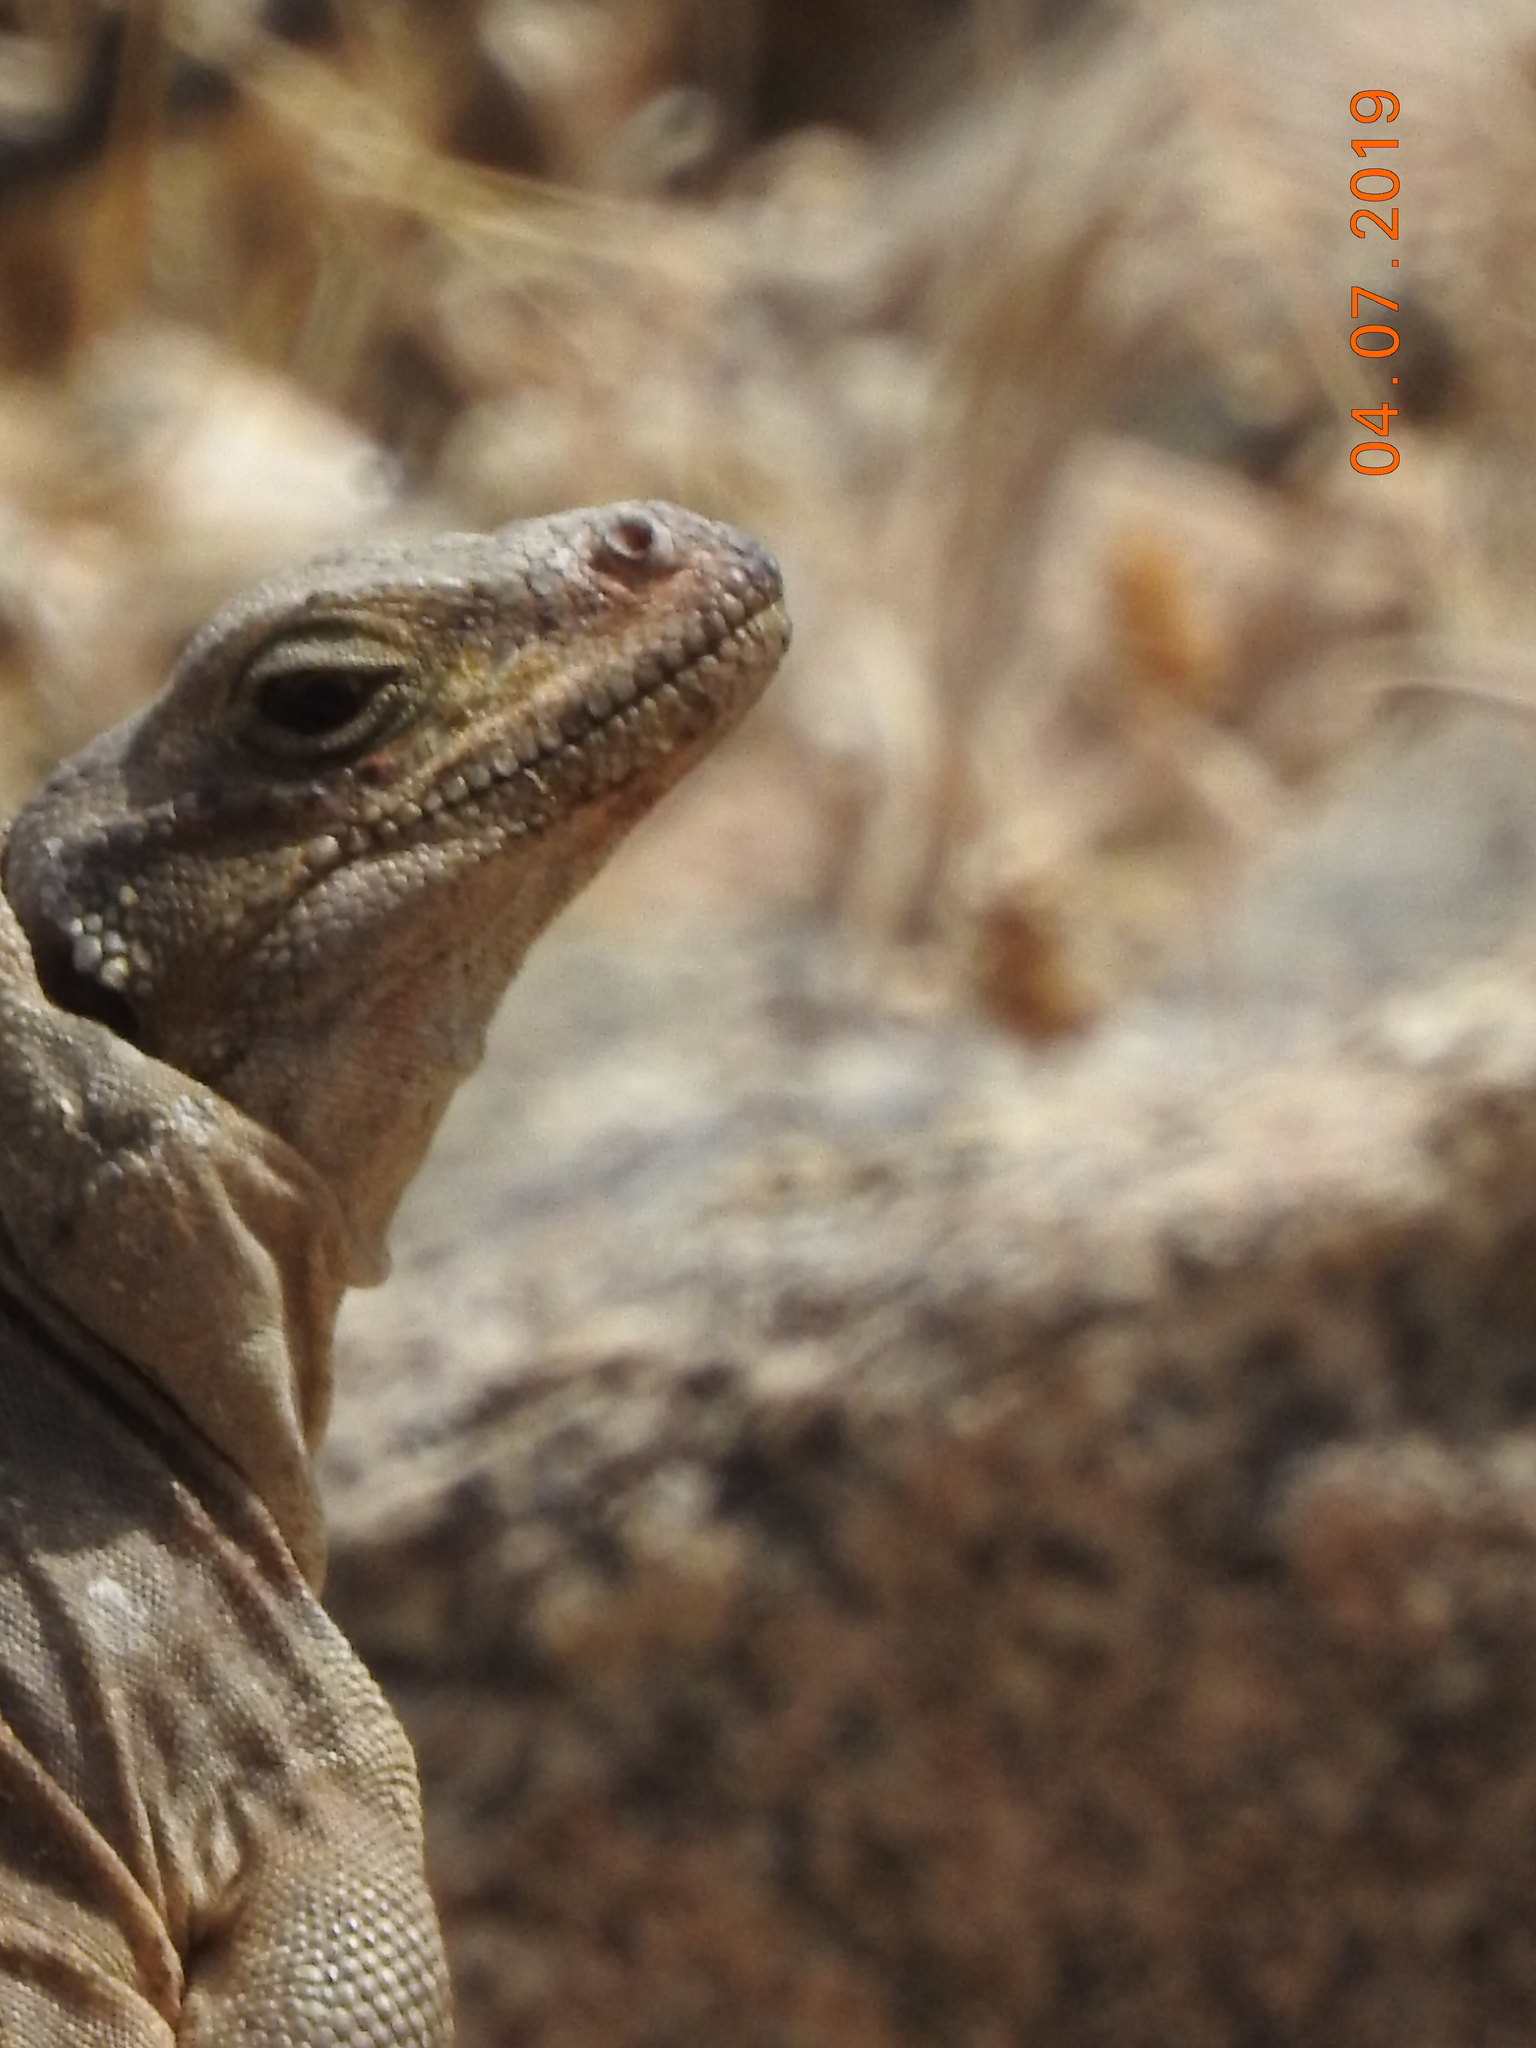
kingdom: Animalia
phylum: Chordata
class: Squamata
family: Iguanidae
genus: Sauromalus
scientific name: Sauromalus ater
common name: Northern chuckwalla
